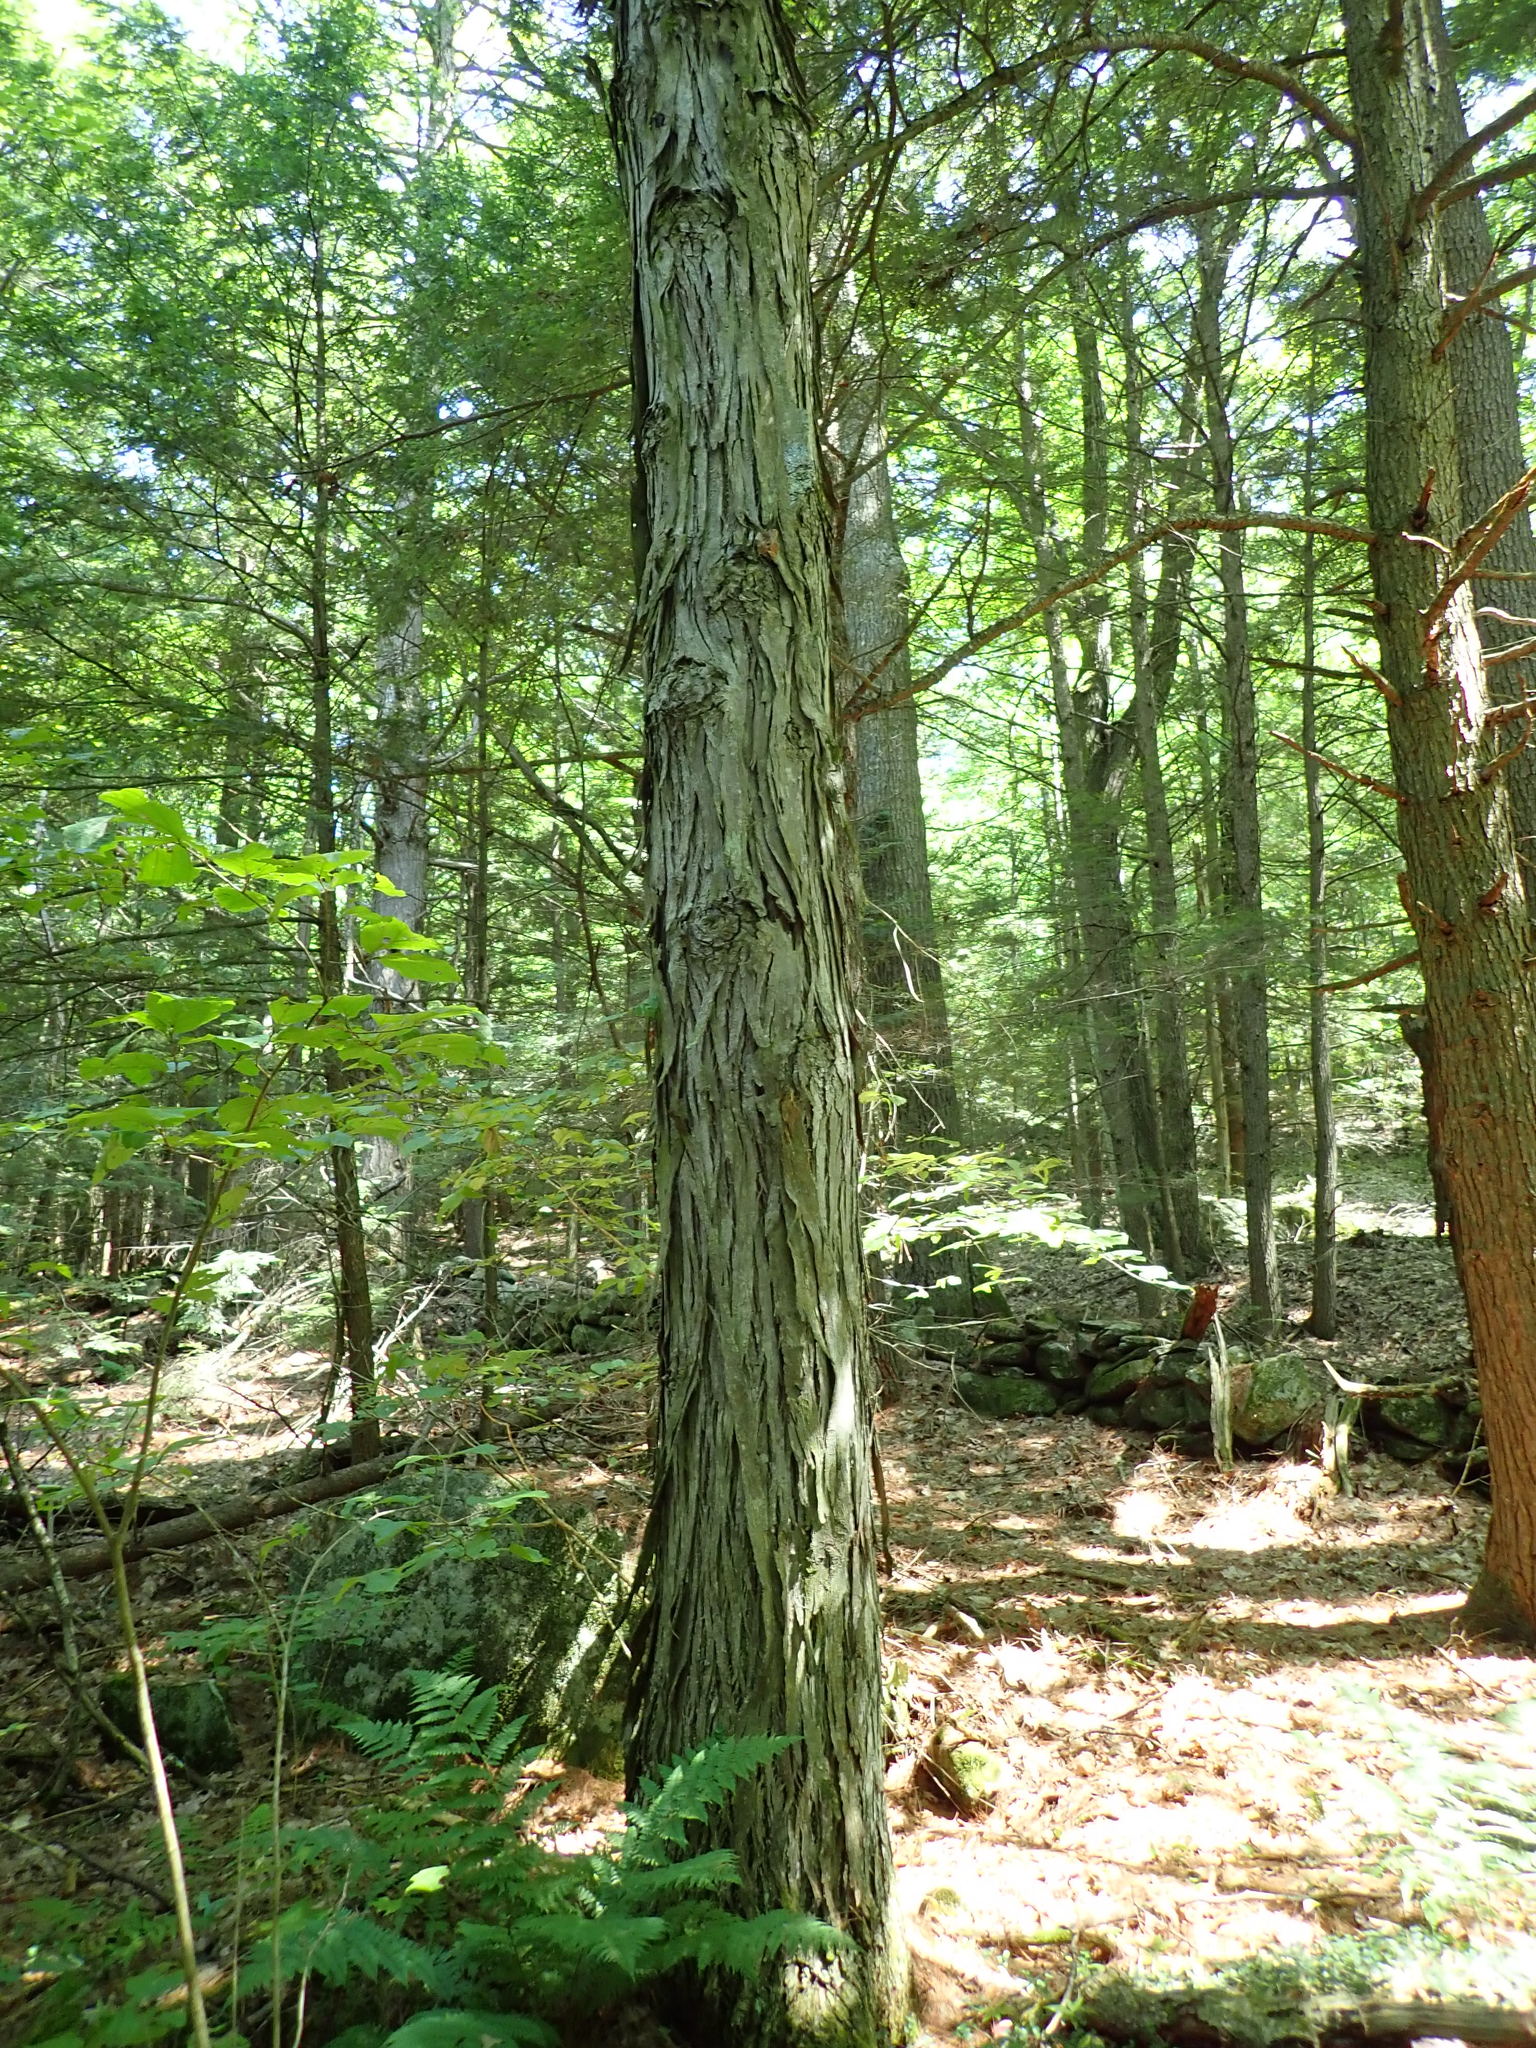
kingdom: Plantae
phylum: Tracheophyta
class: Magnoliopsida
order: Fagales
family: Juglandaceae
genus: Carya
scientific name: Carya ovata
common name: Shagbark hickory
